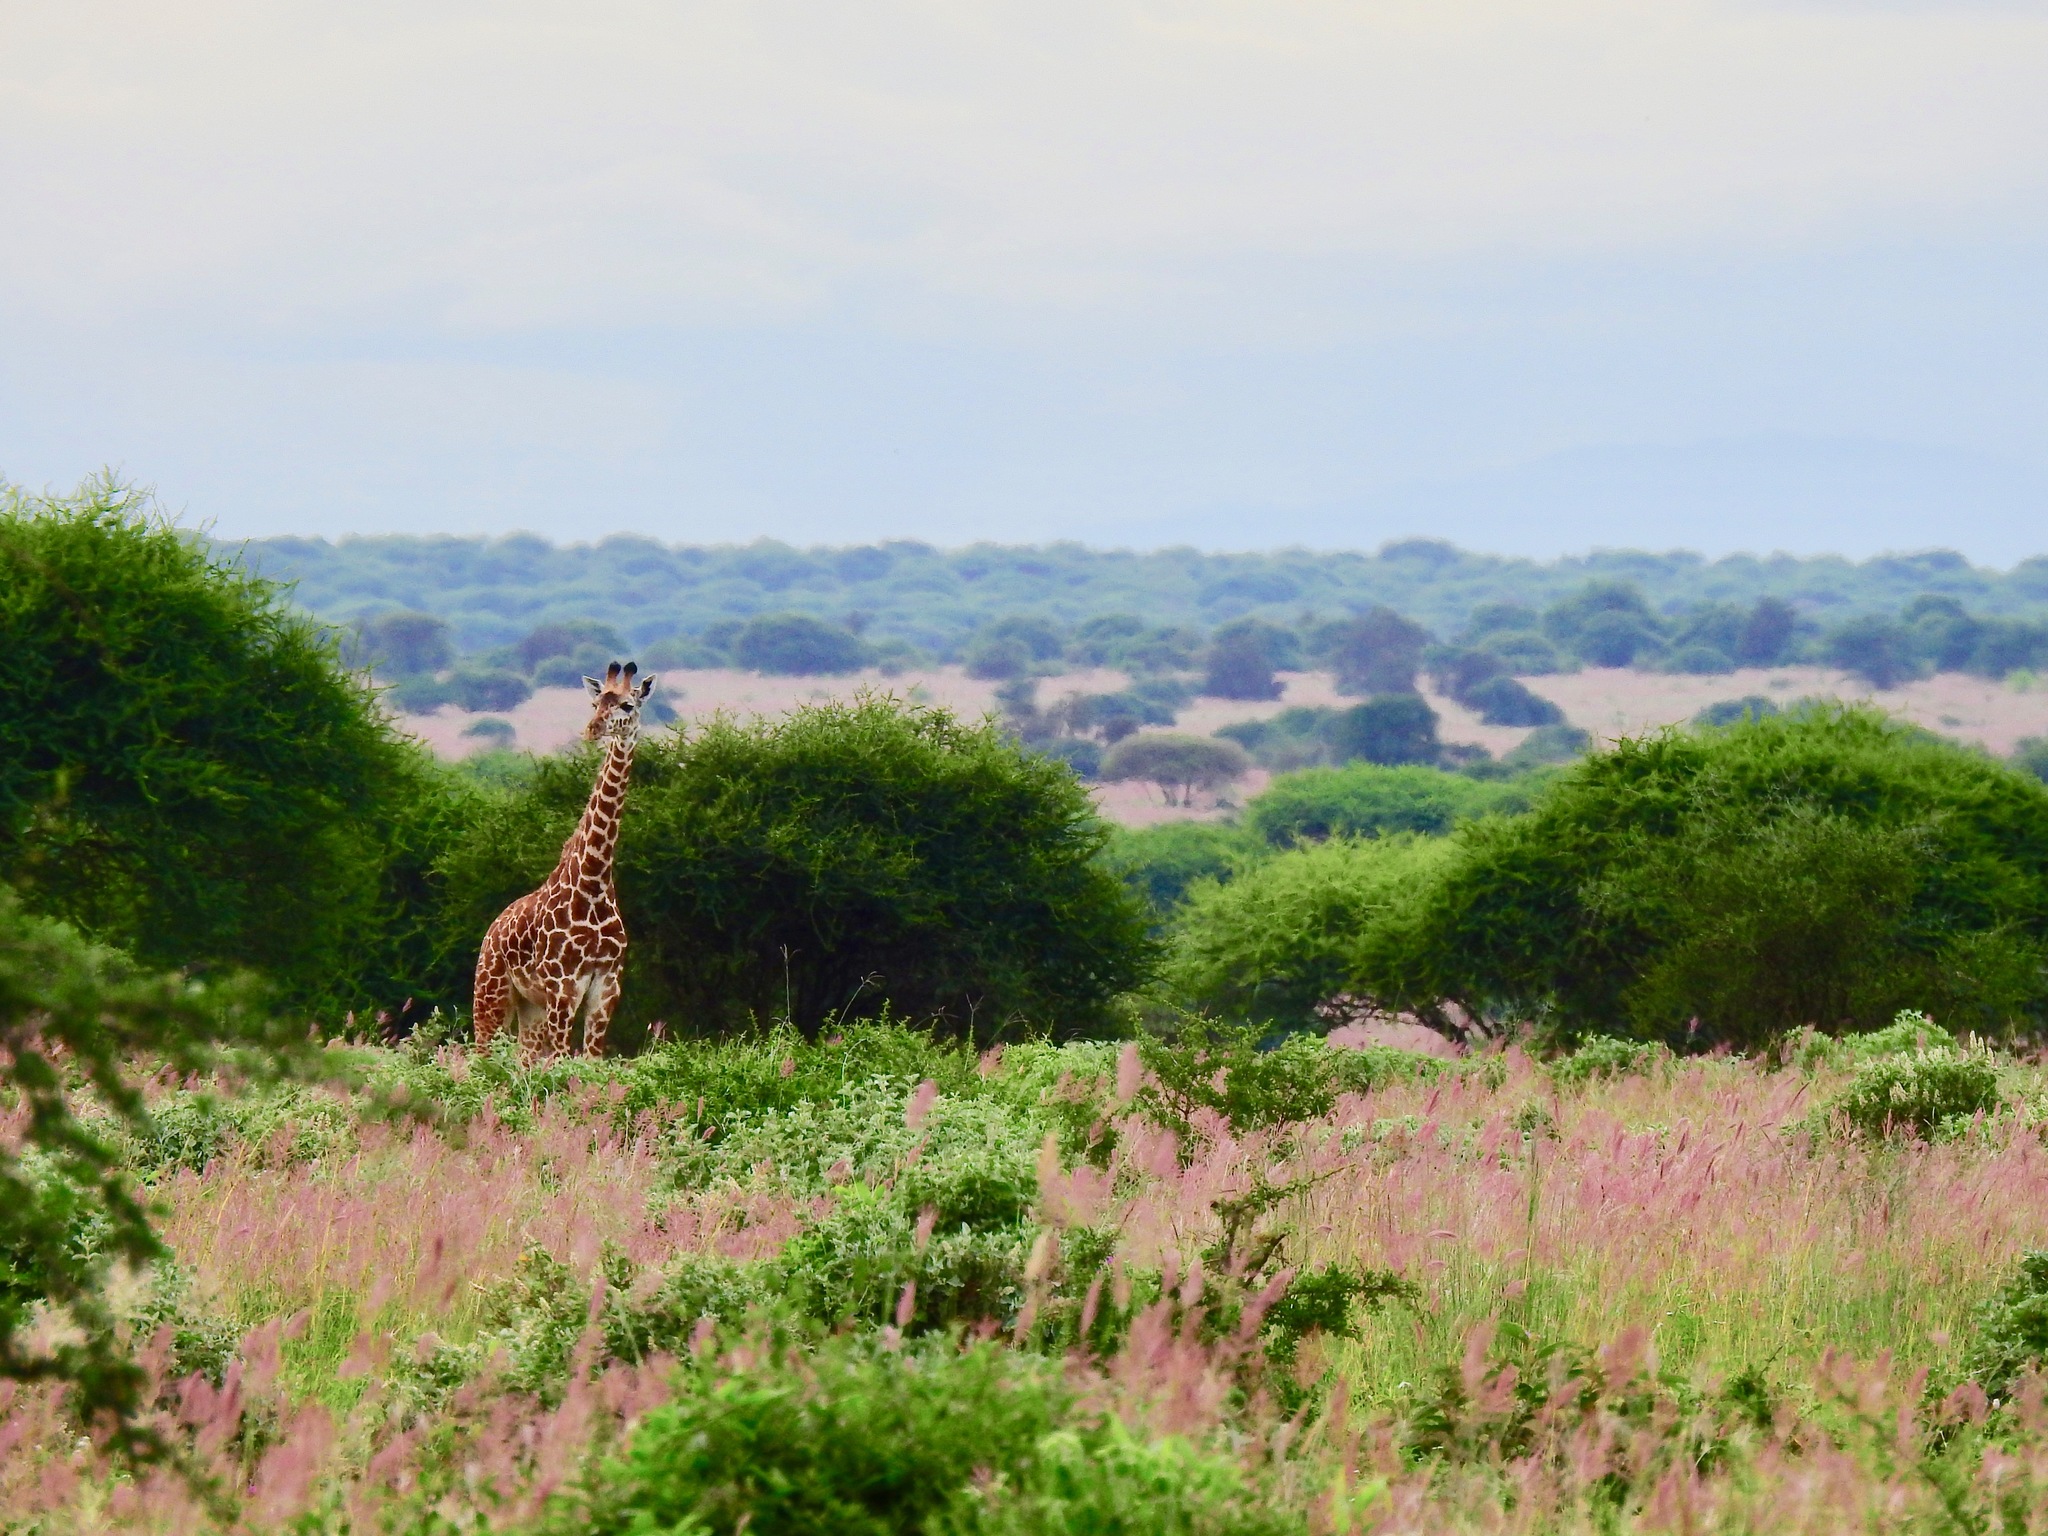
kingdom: Animalia
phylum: Chordata
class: Mammalia
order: Artiodactyla
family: Giraffidae
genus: Giraffa
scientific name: Giraffa tippelskirchi
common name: Masai giraffe
